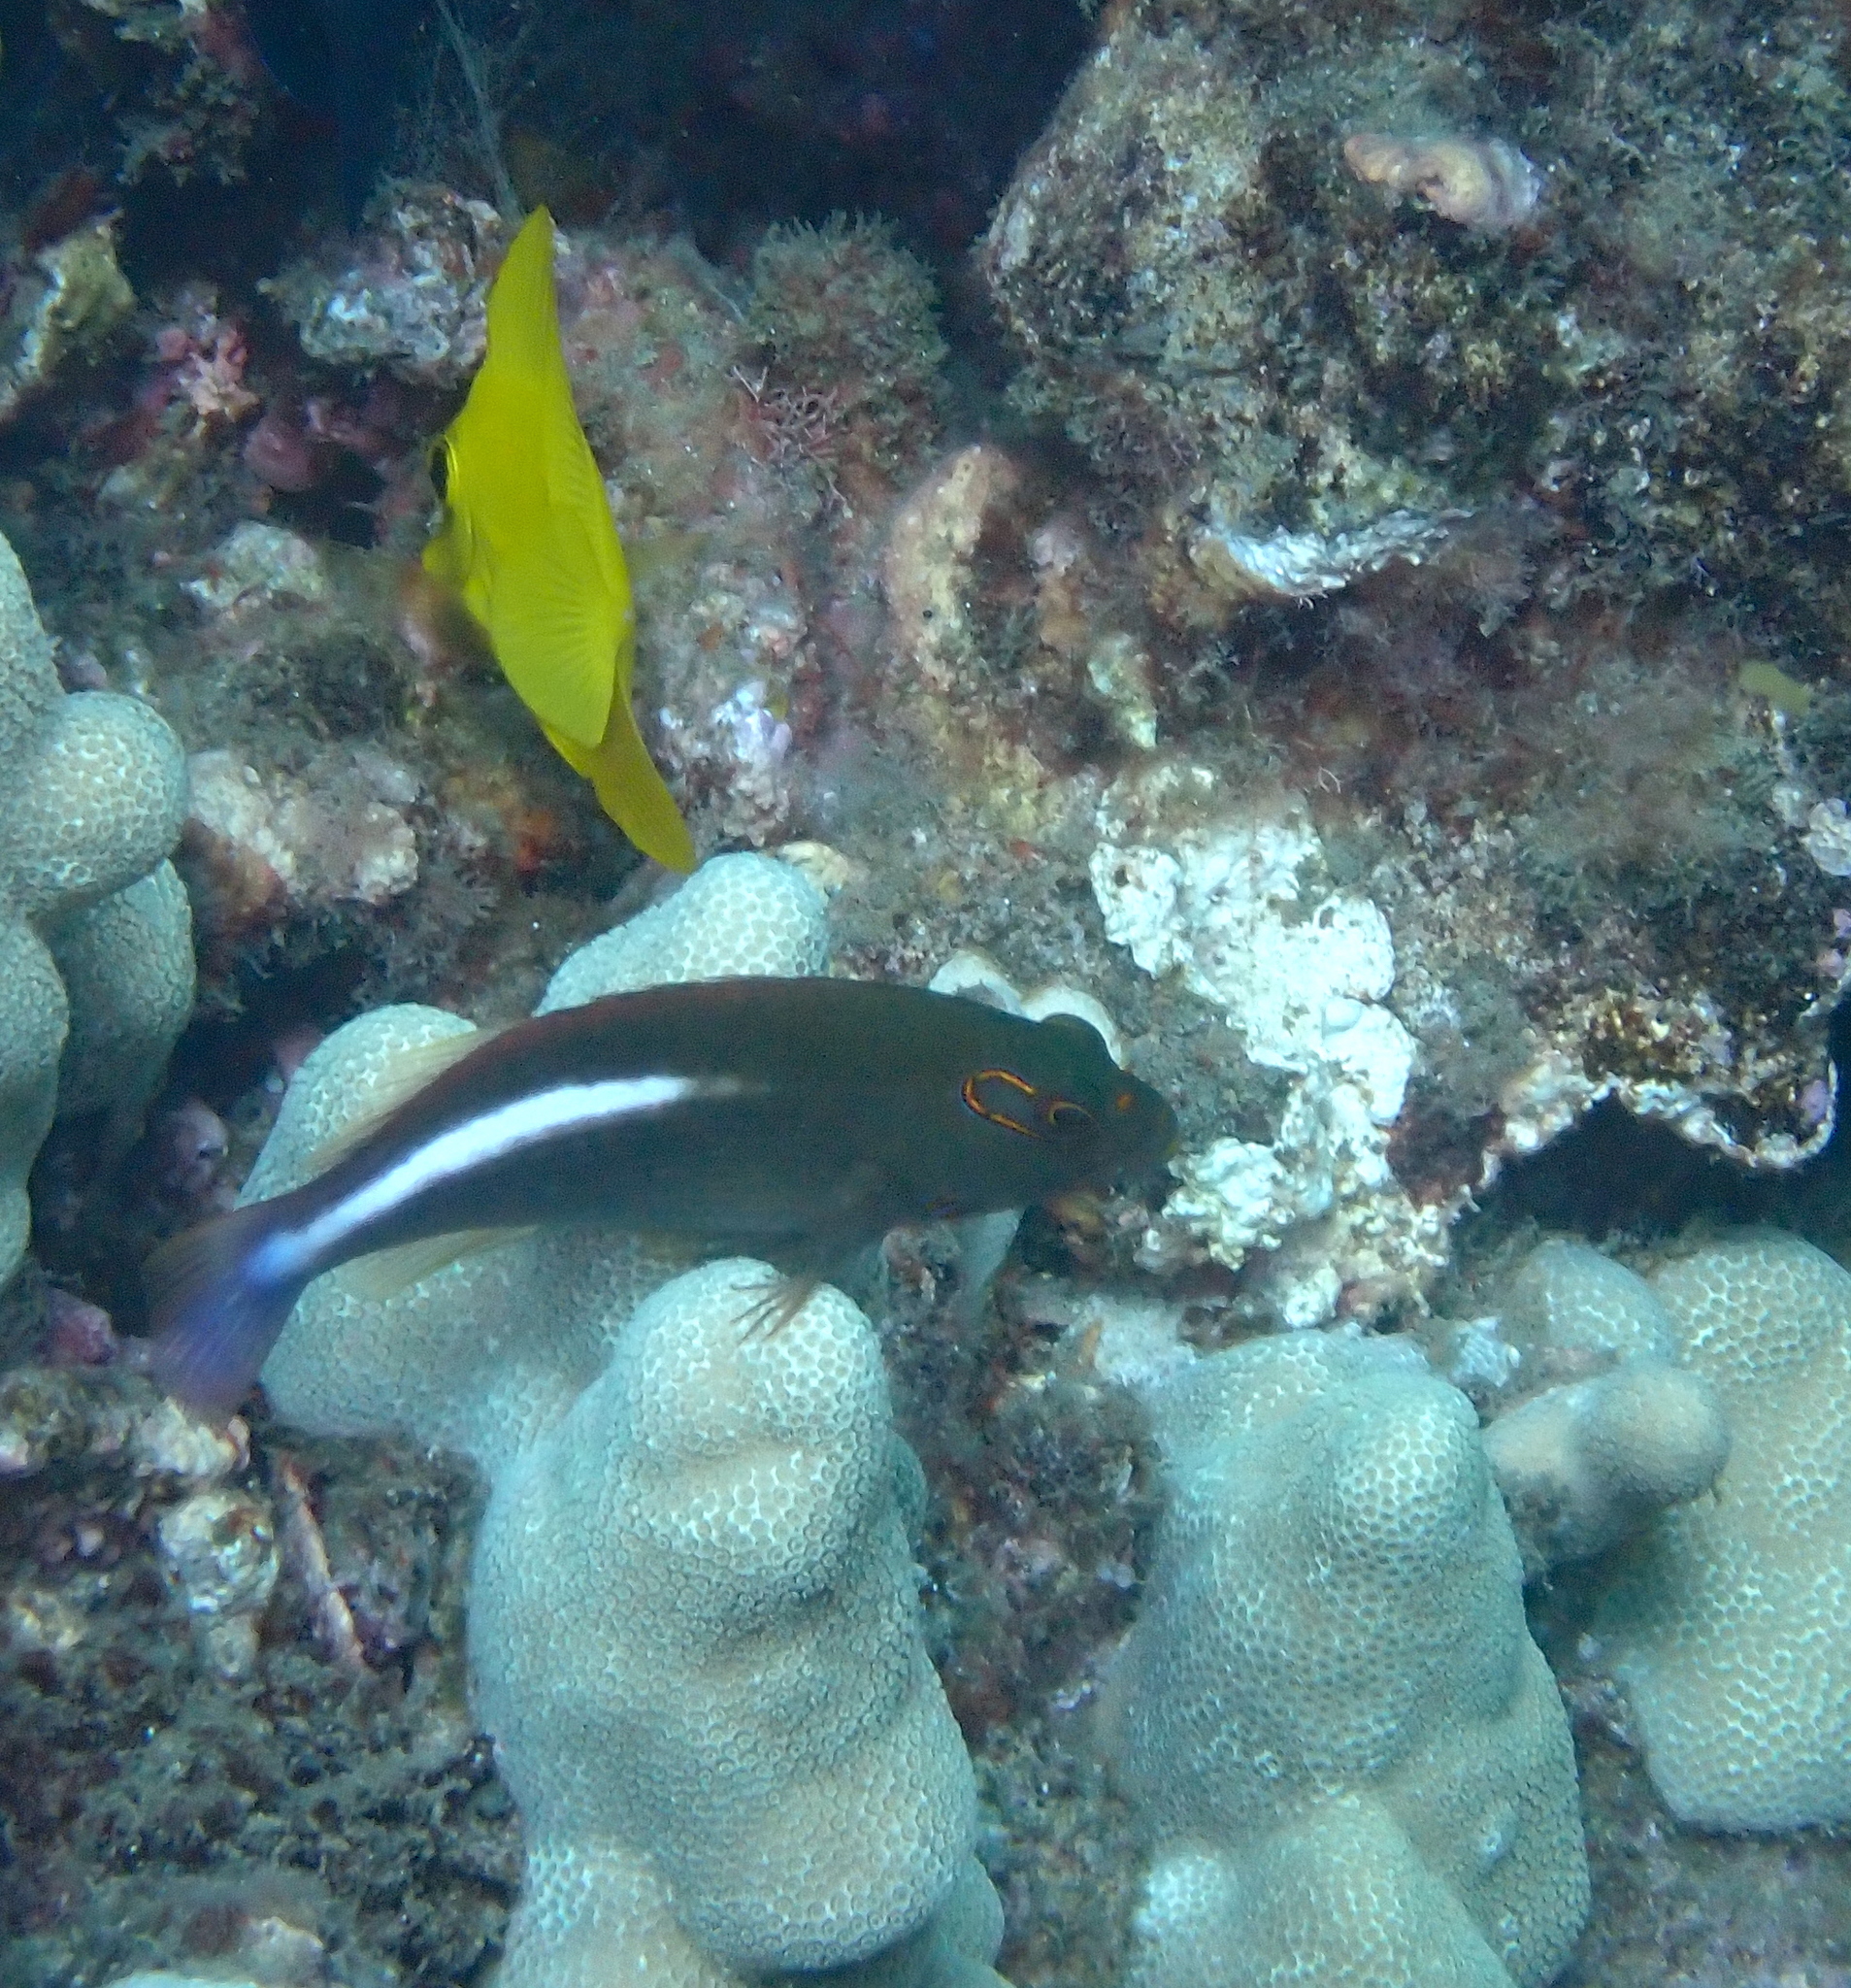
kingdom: Animalia
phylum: Chordata
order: Perciformes
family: Cirrhitidae
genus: Paracirrhites
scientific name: Paracirrhites arcatus
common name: Arc-eye hawkfish
